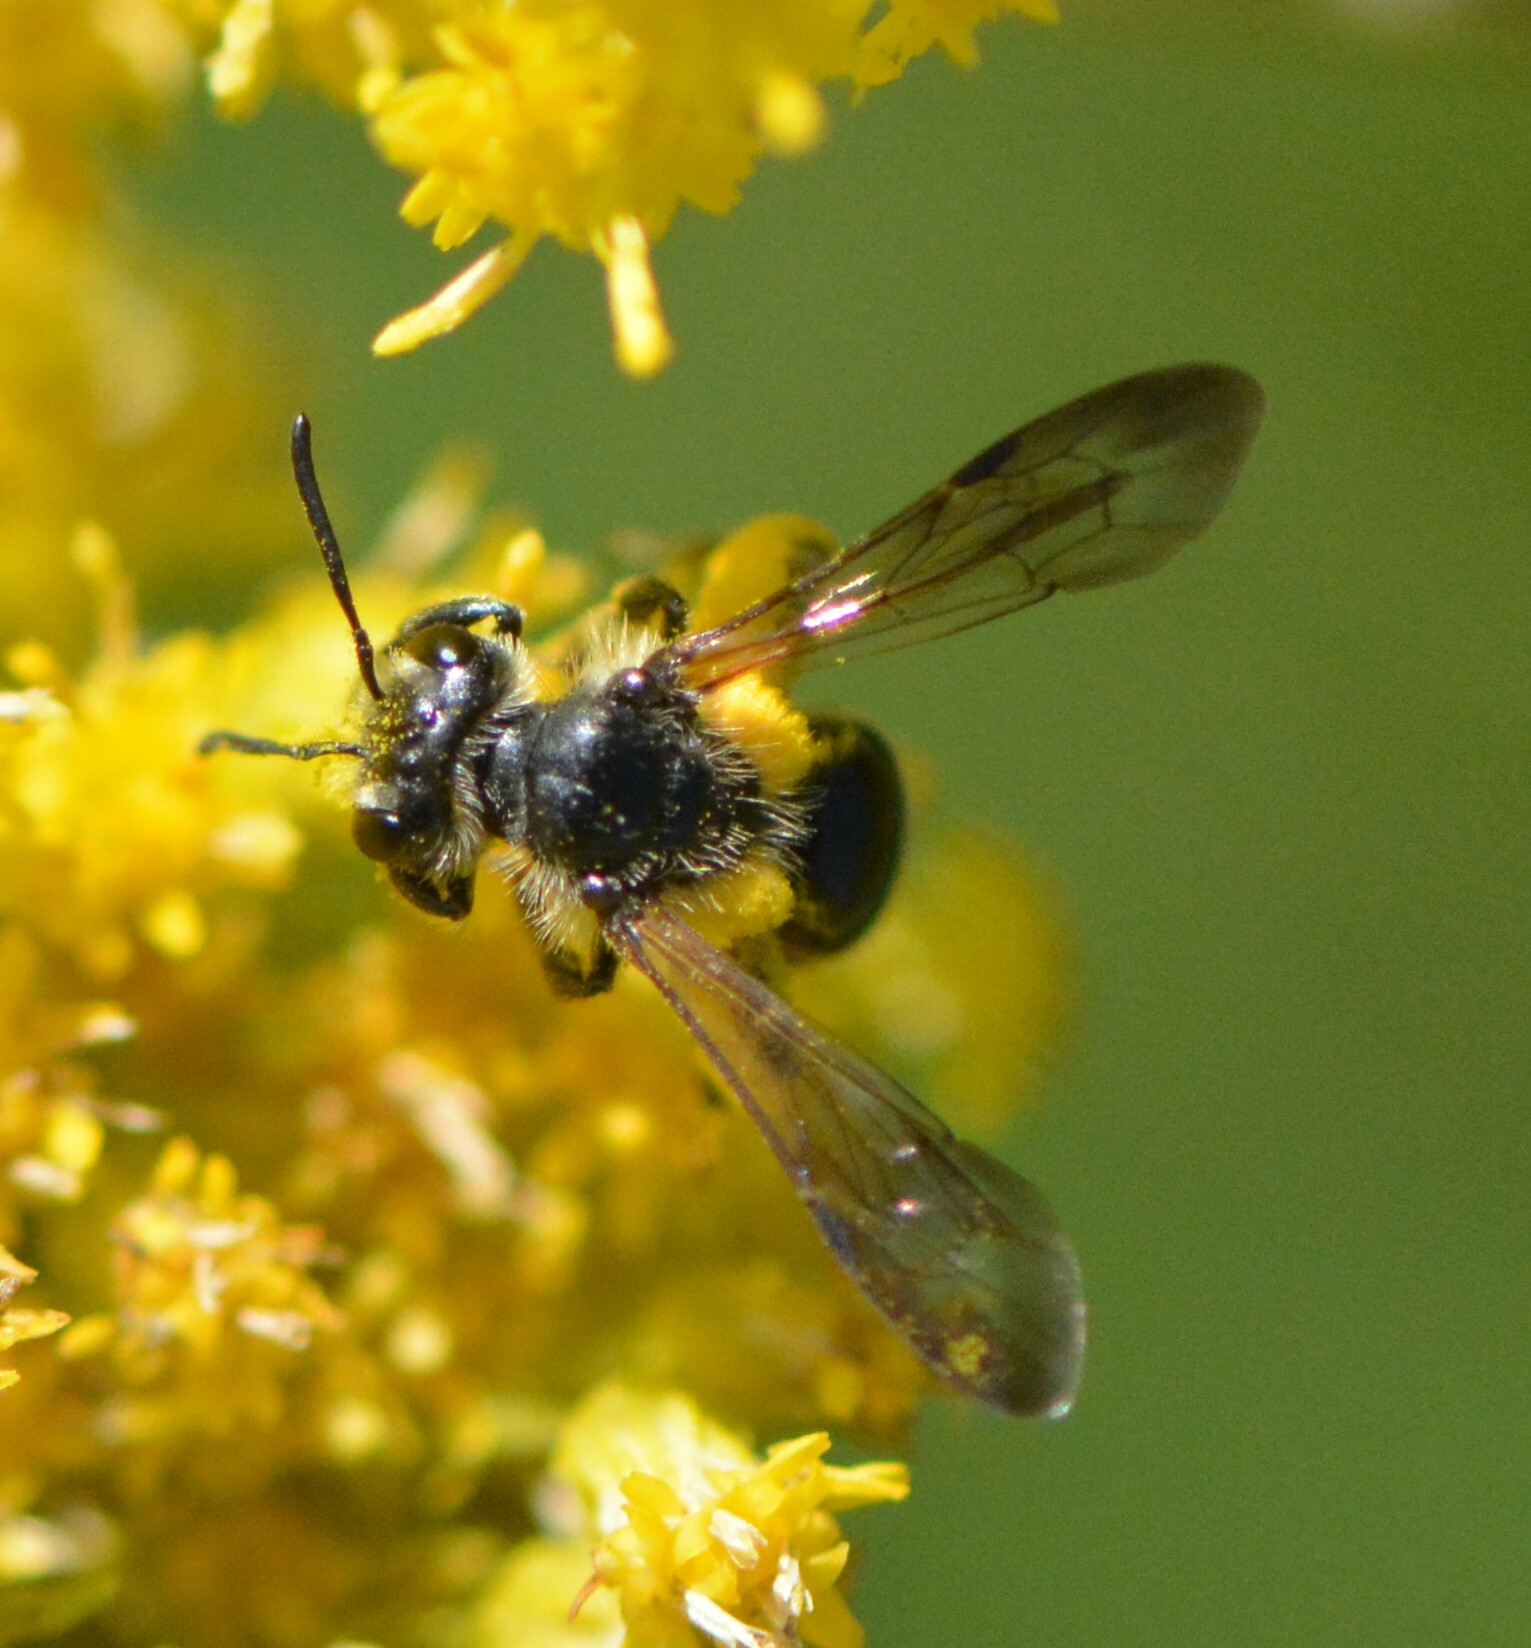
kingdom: Animalia
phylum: Arthropoda
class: Insecta
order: Hymenoptera
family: Andrenidae
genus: Andrena
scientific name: Andrena nubecula
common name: Cloudy-winged mining bee
